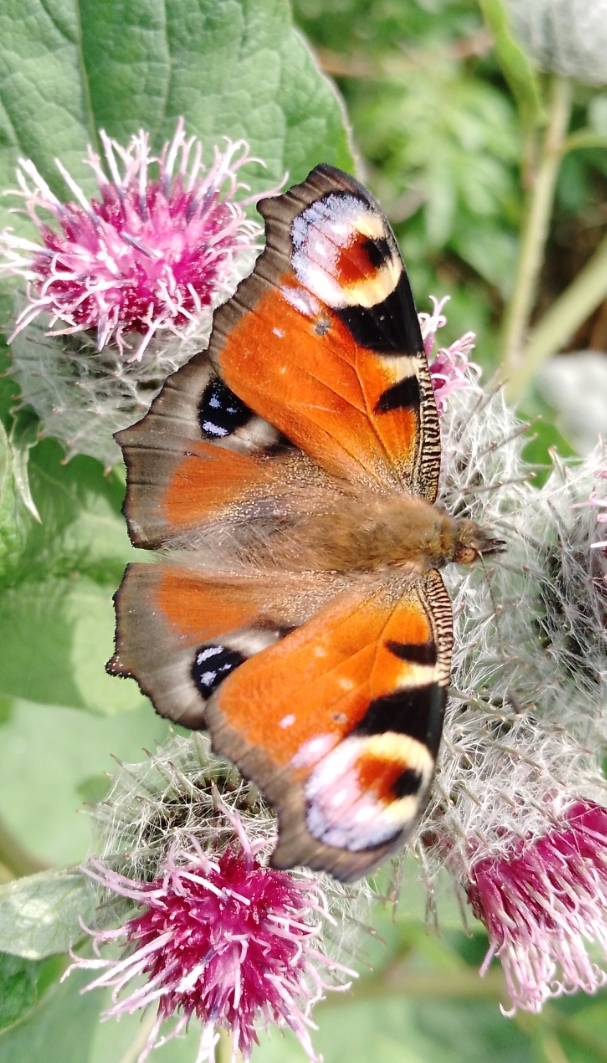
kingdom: Animalia
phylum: Arthropoda
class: Insecta
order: Lepidoptera
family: Nymphalidae
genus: Aglais
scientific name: Aglais io
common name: Peacock
